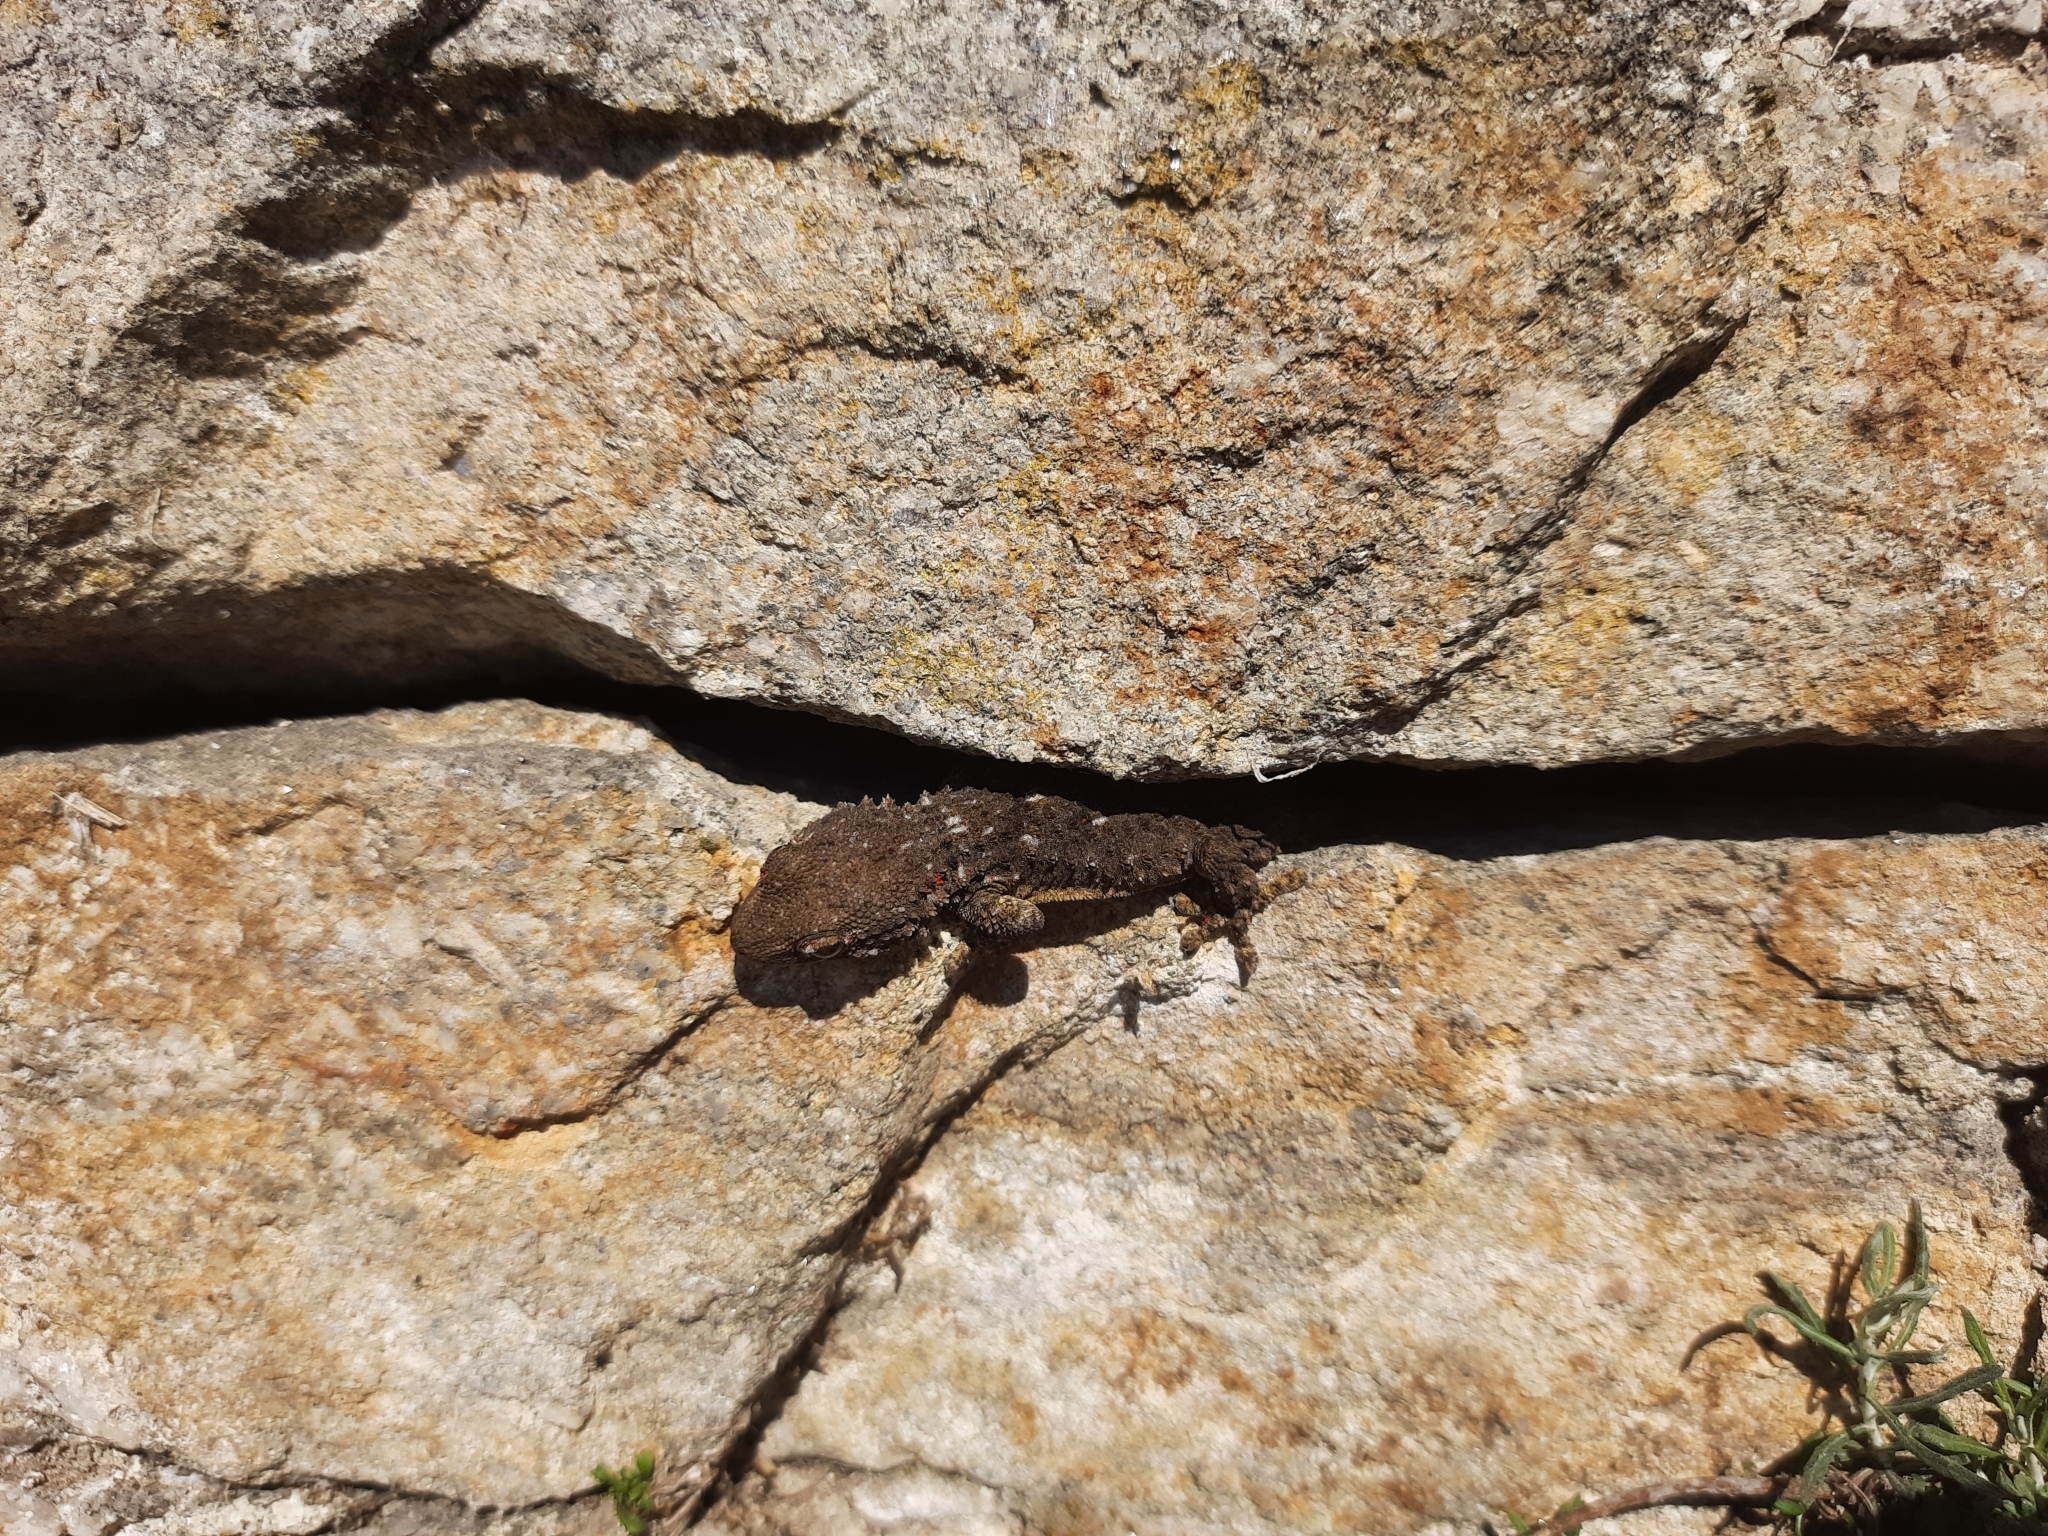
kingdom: Animalia
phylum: Chordata
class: Squamata
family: Phyllodactylidae
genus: Tarentola
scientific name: Tarentola mauritanica
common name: Moorish gecko
